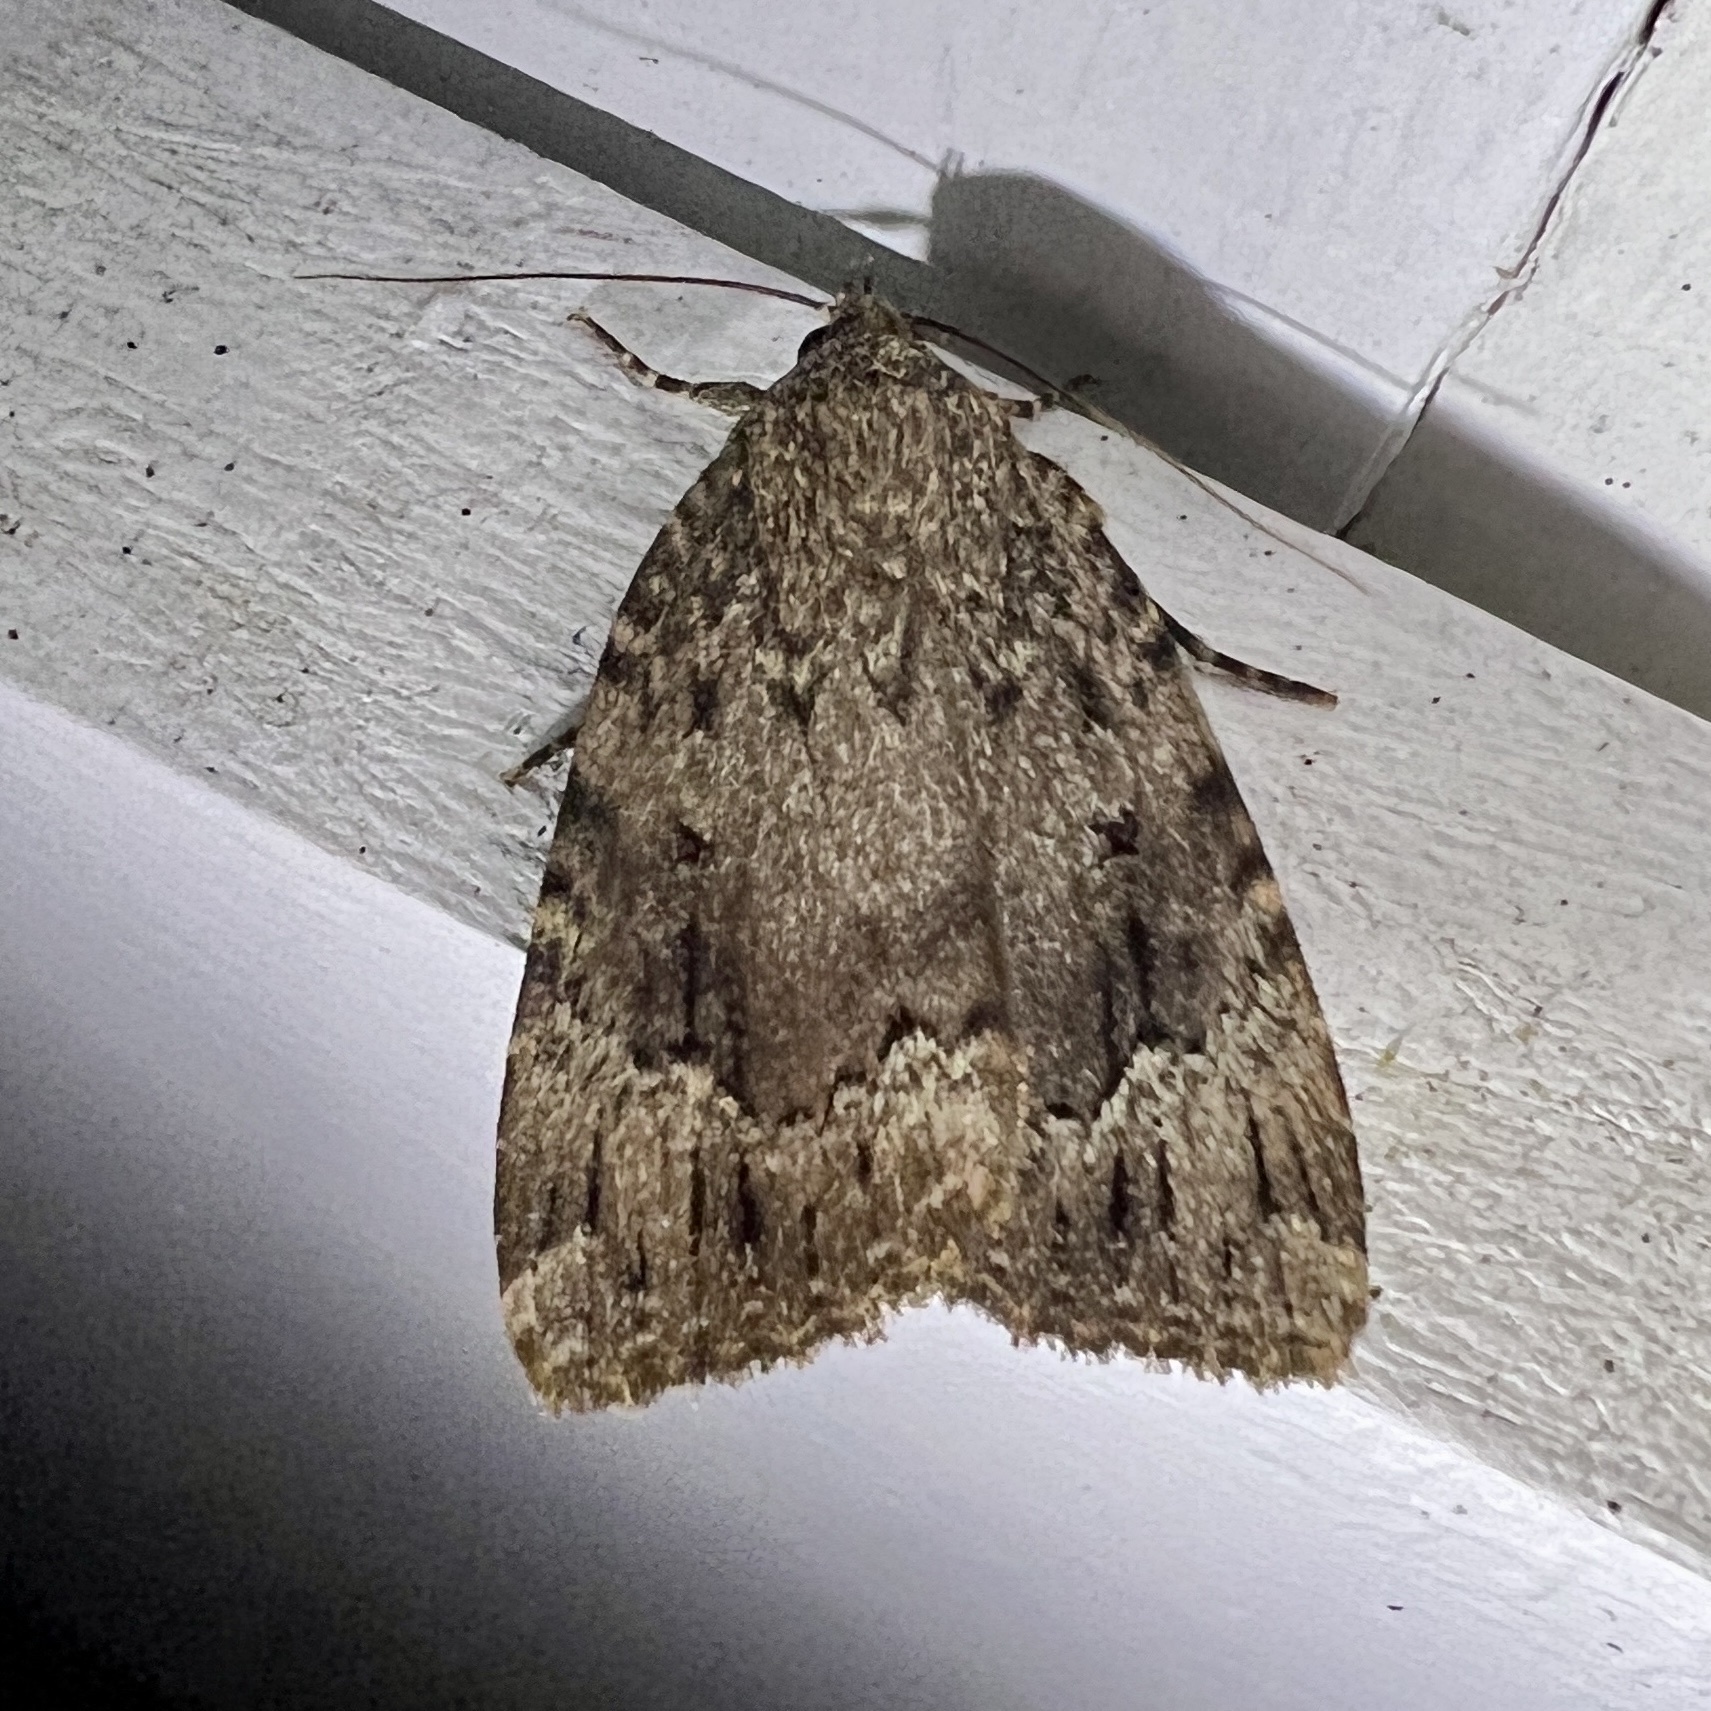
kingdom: Animalia
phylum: Arthropoda
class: Insecta
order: Lepidoptera
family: Noctuidae
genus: Amphipyra
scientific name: Amphipyra pyramidoides
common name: American copper underwing
